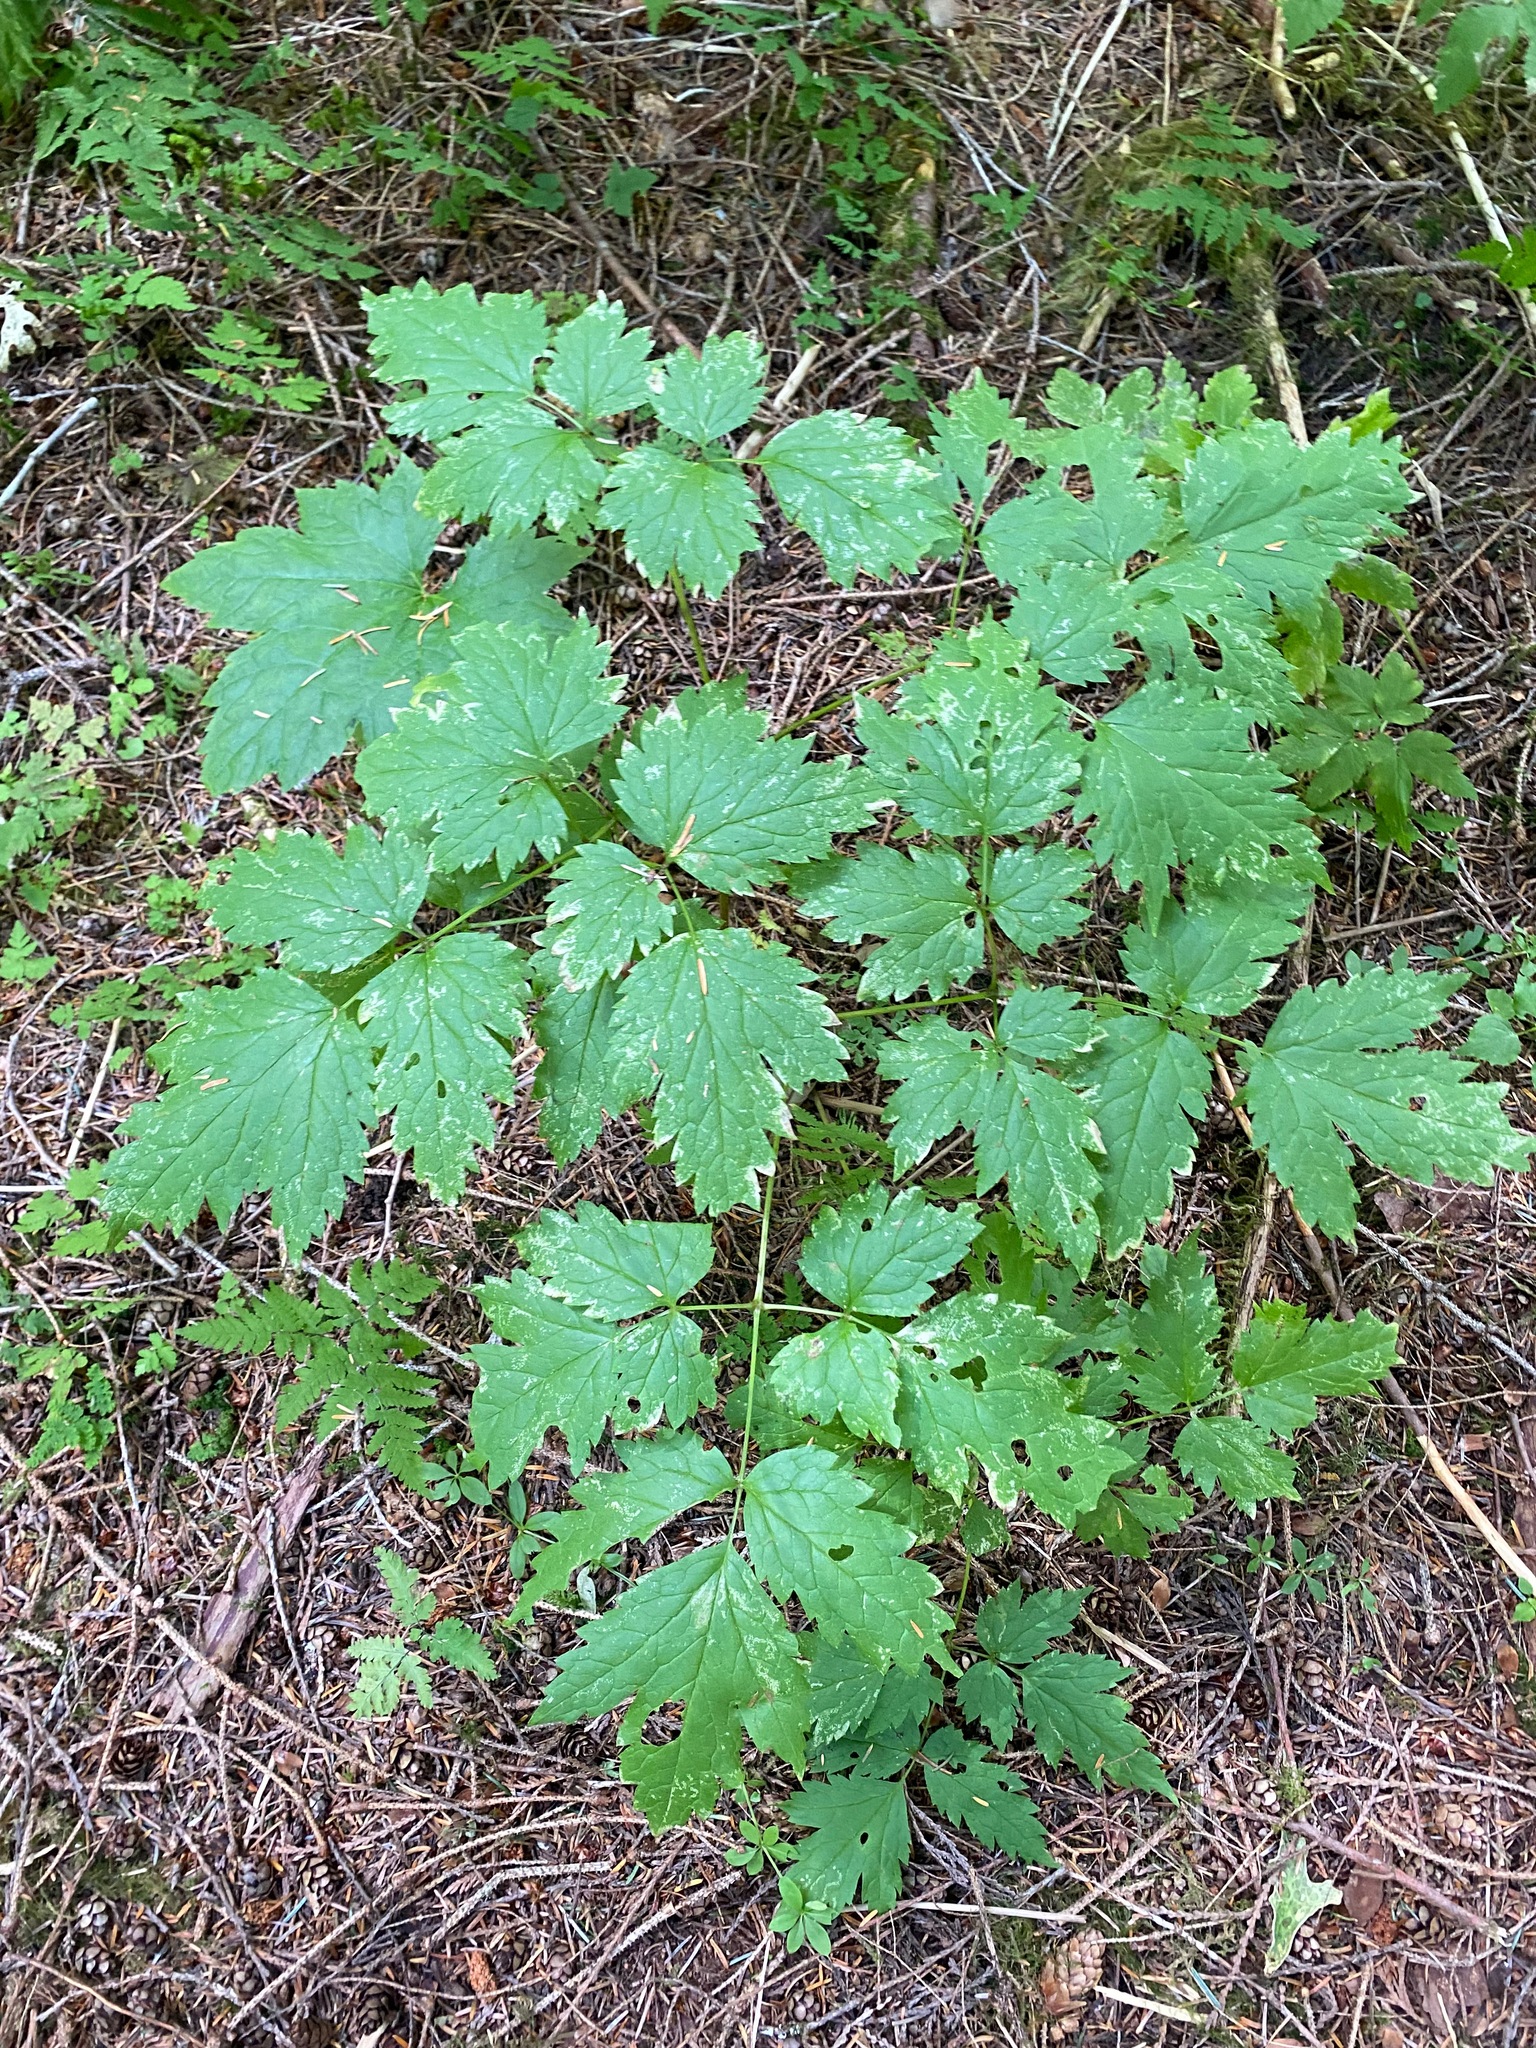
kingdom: Plantae
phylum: Tracheophyta
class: Magnoliopsida
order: Ranunculales
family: Ranunculaceae
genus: Actaea
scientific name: Actaea rubra
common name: Red baneberry
